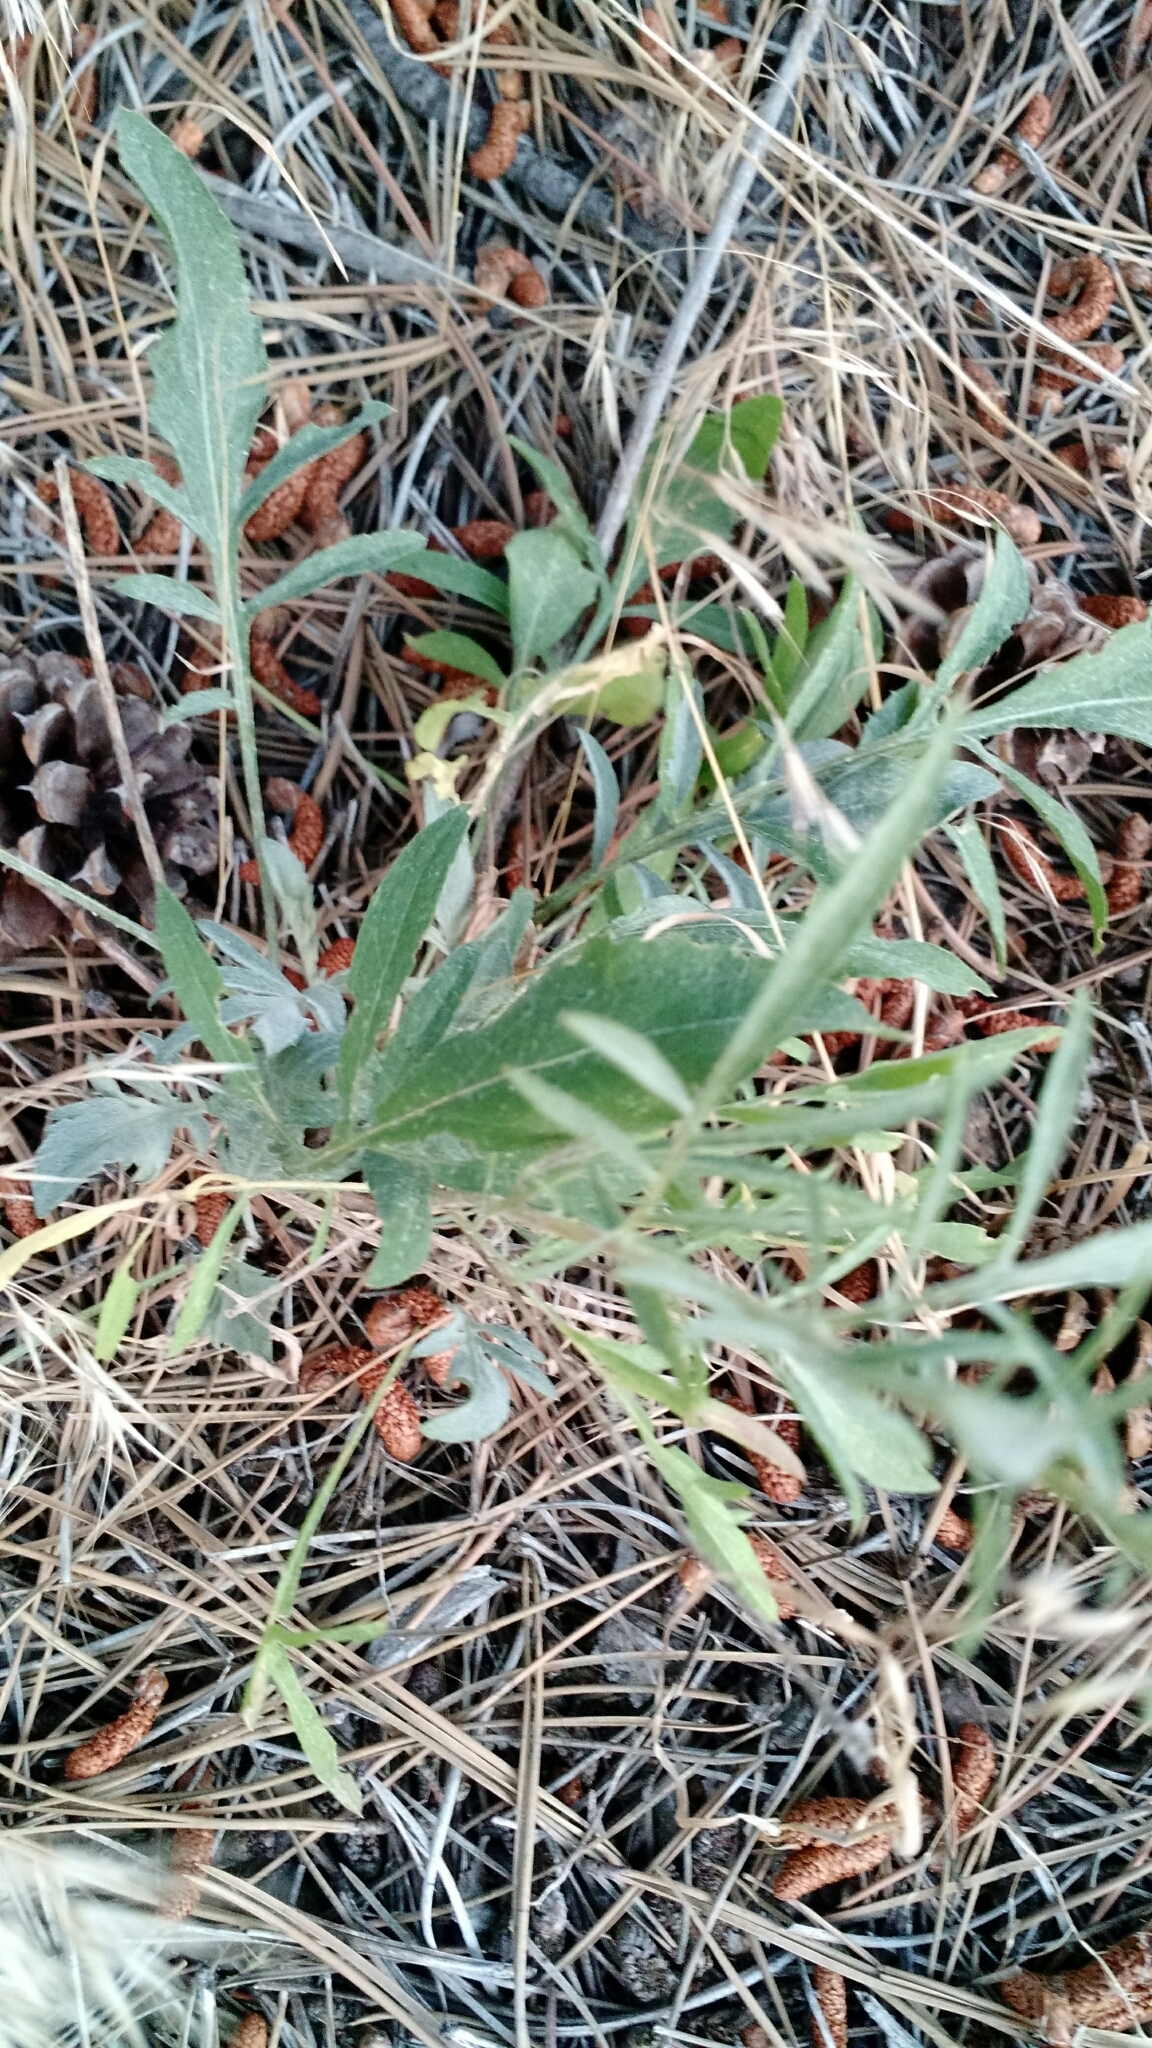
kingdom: Plantae
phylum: Tracheophyta
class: Magnoliopsida
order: Asterales
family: Asteraceae
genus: Centaurea
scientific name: Centaurea stoebe
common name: Spotted knapweed
